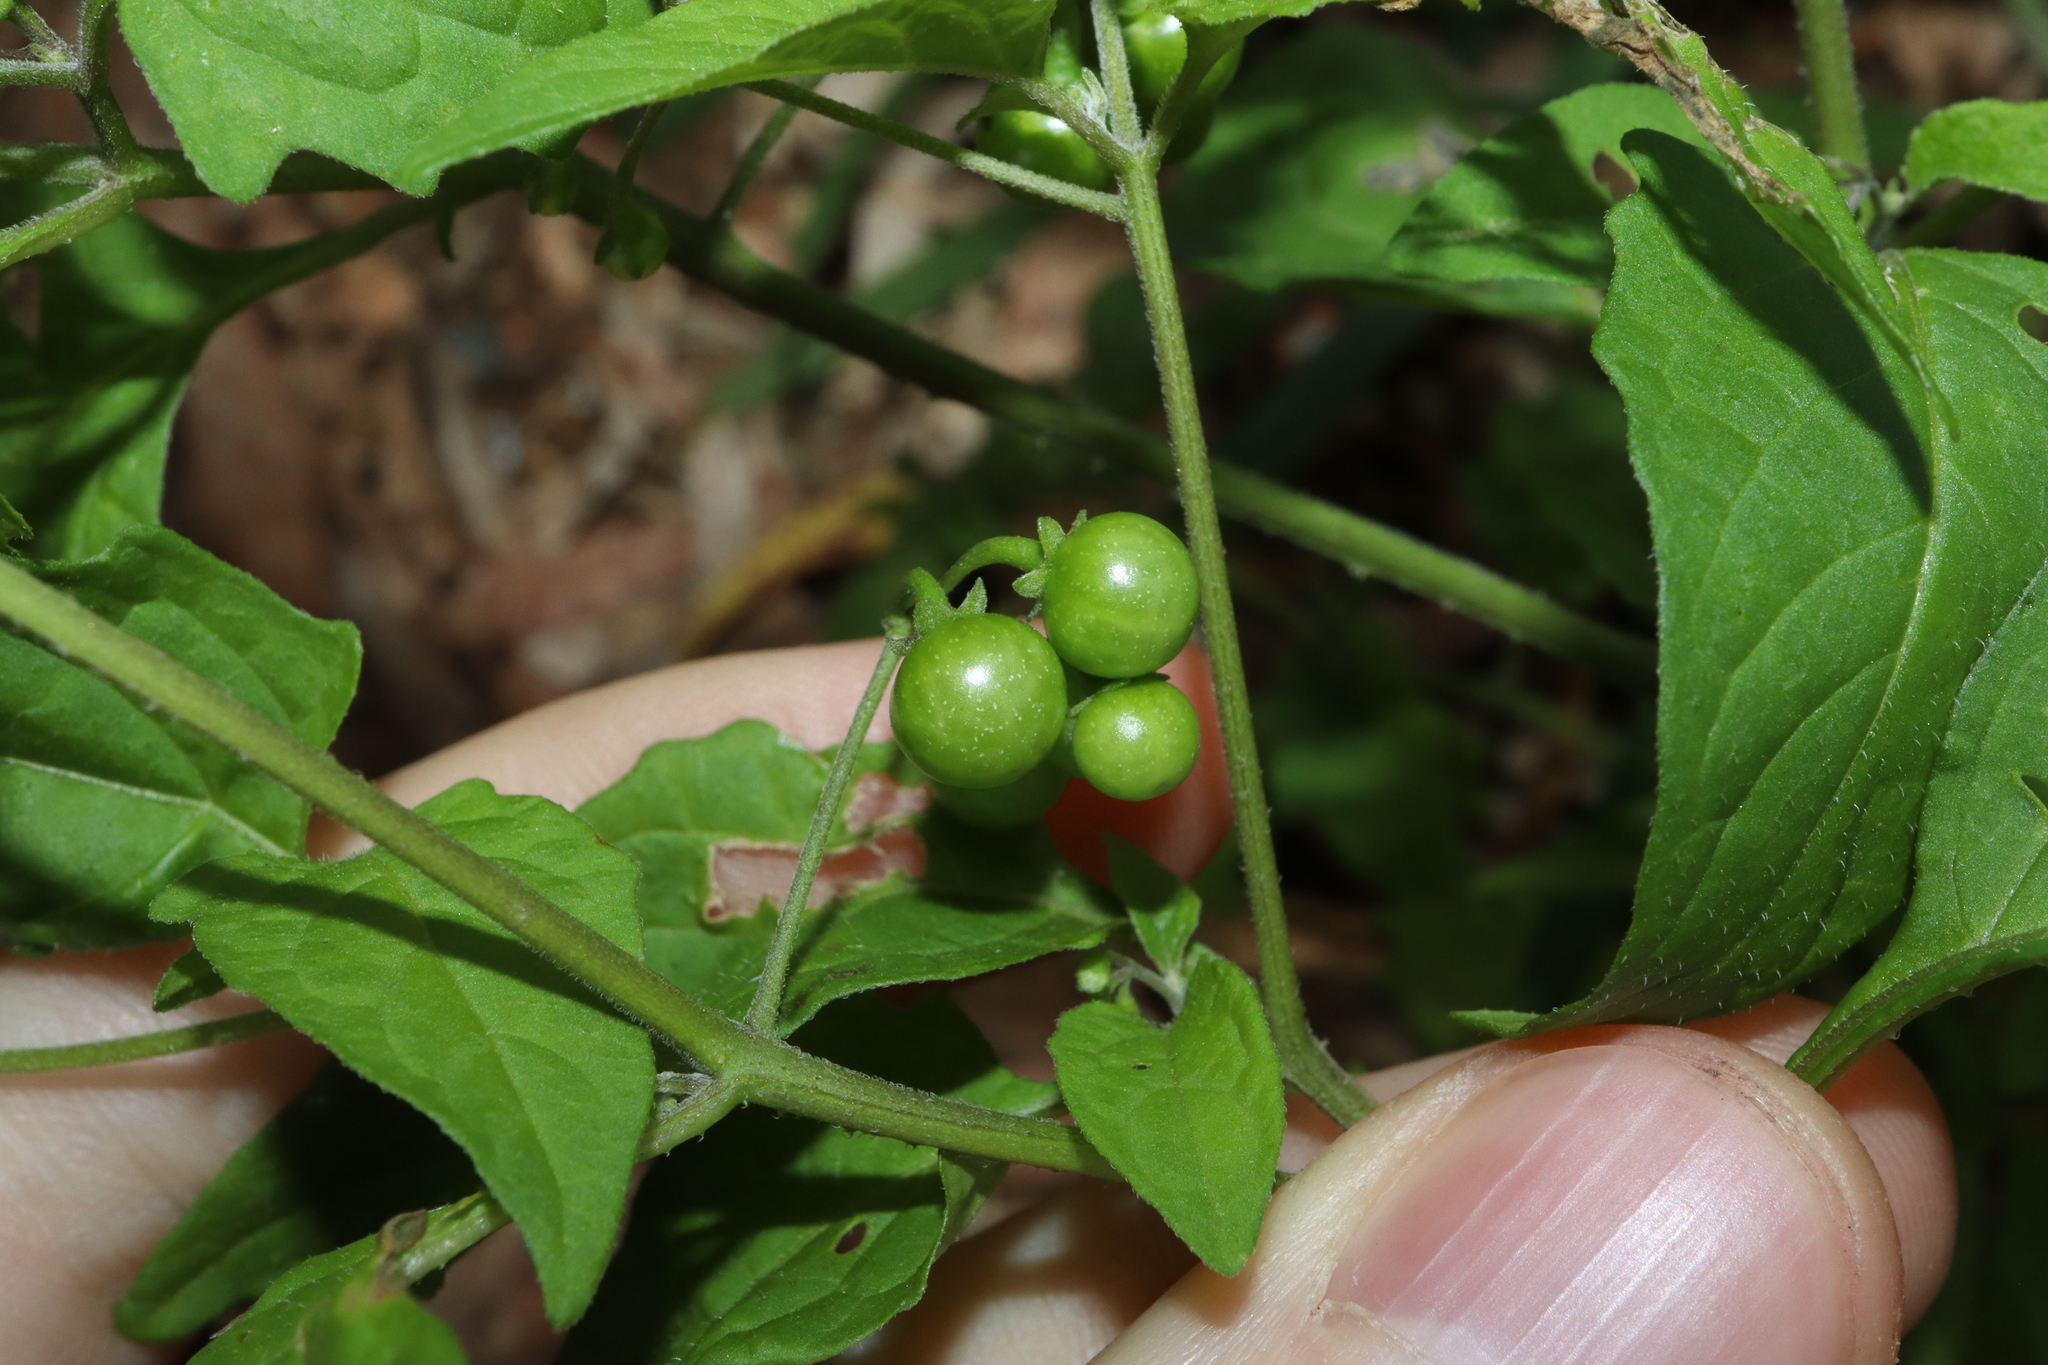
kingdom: Plantae
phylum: Tracheophyta
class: Magnoliopsida
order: Solanales
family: Solanaceae
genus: Solanum
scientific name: Solanum americanum
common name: American black nightshade
